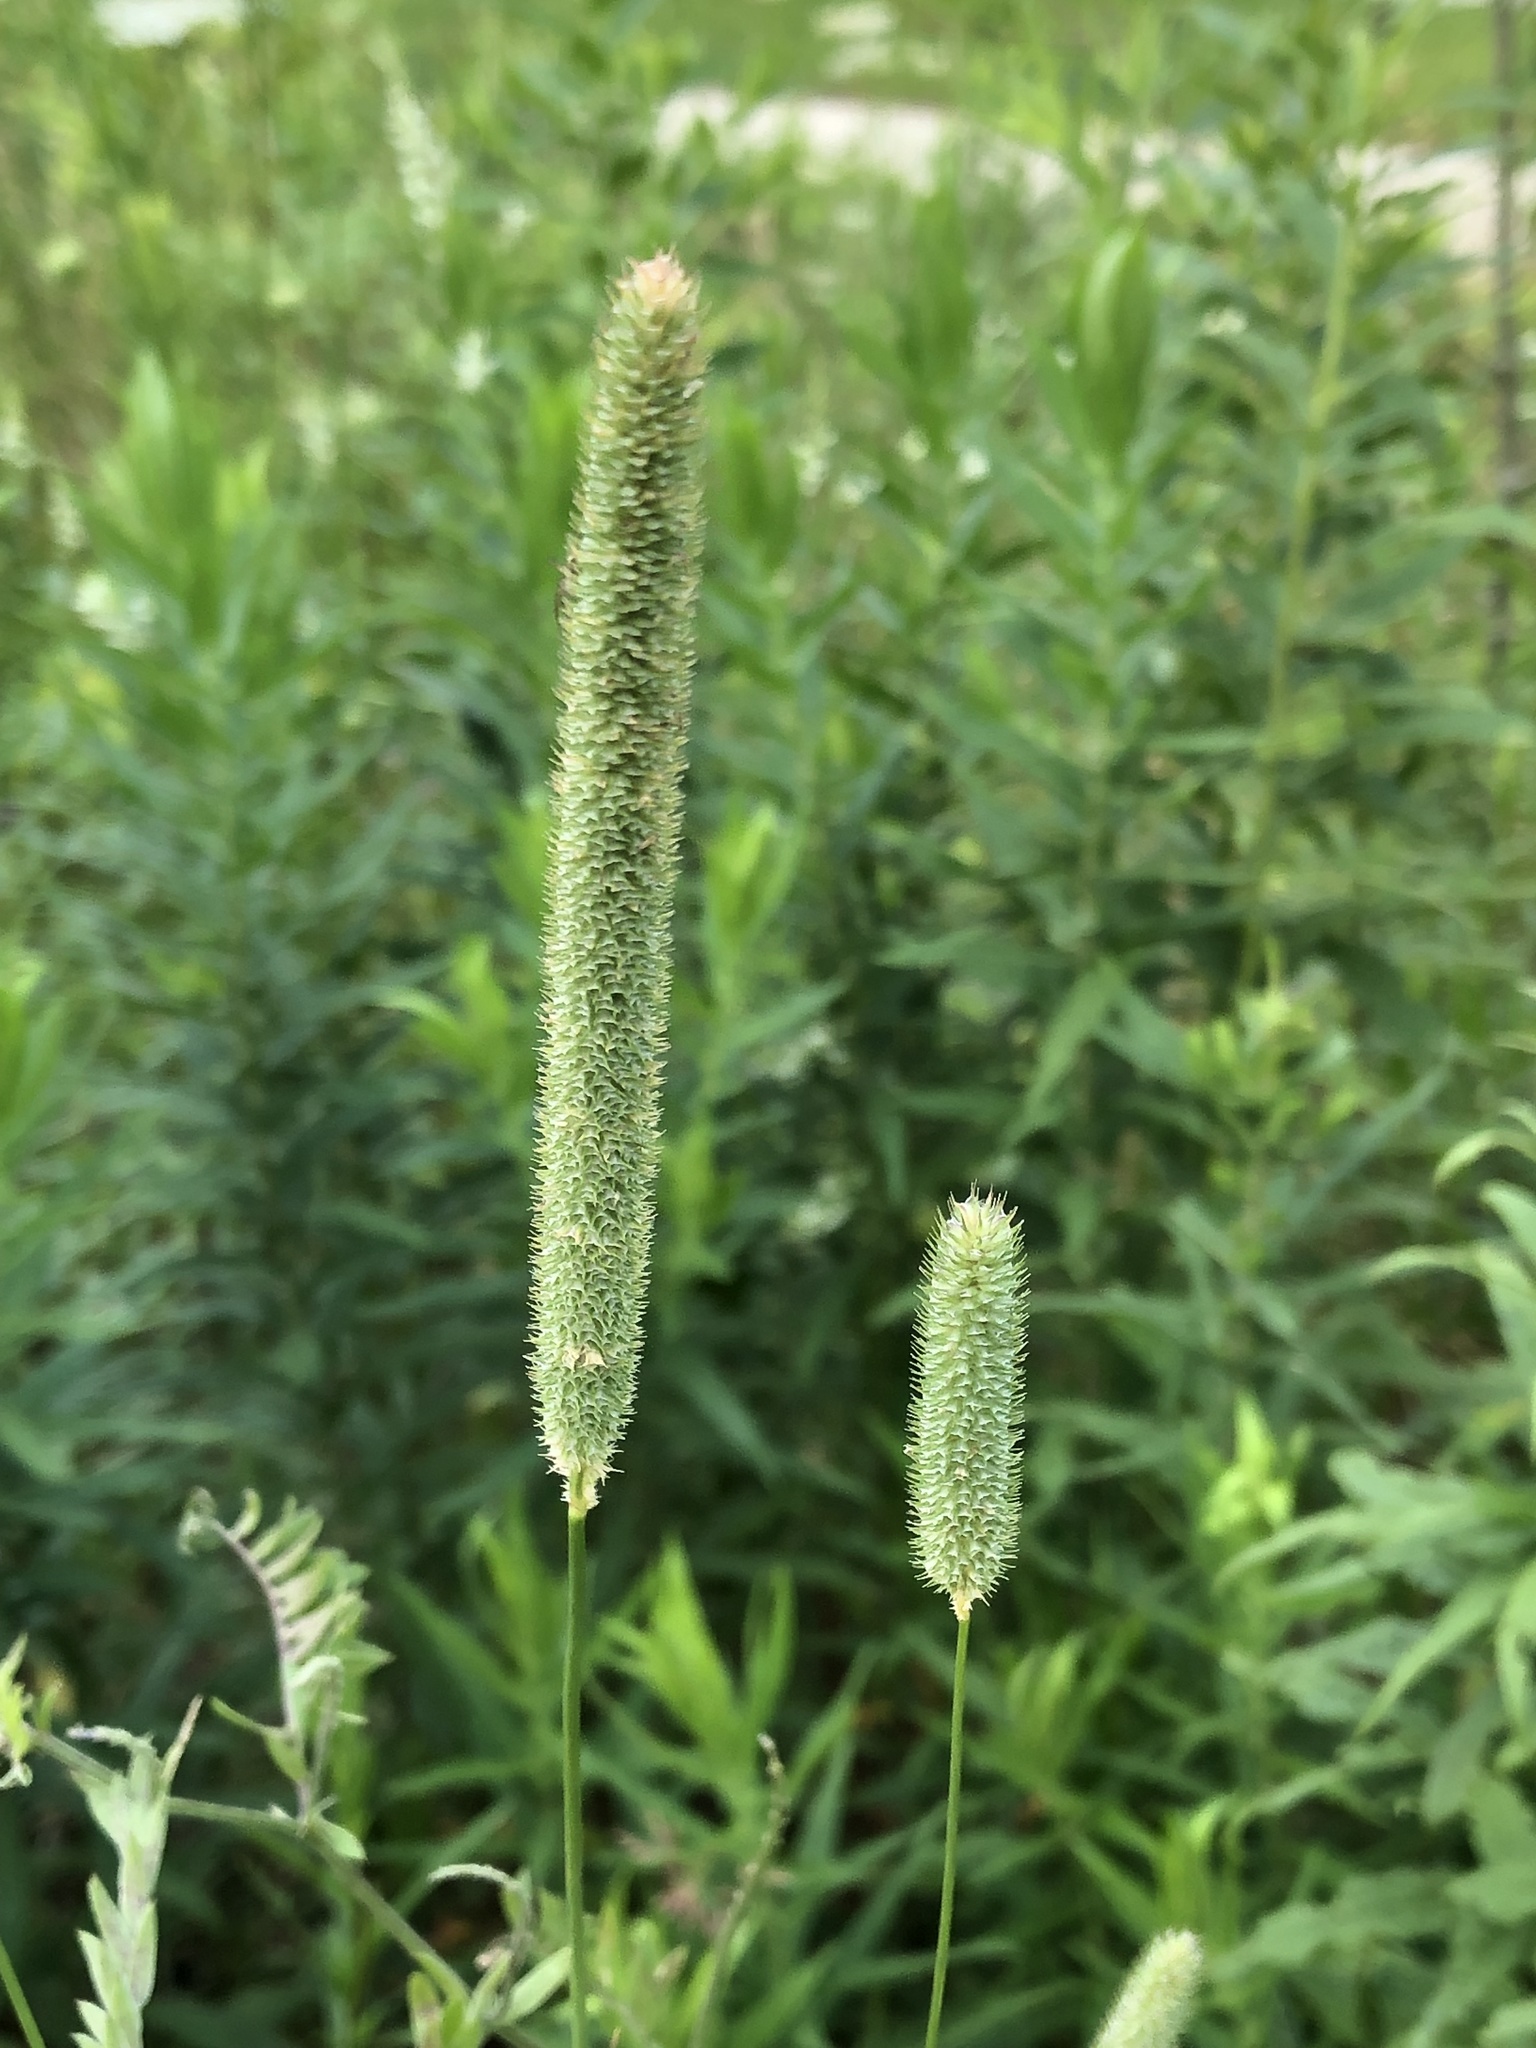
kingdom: Plantae
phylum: Tracheophyta
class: Liliopsida
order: Poales
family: Poaceae
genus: Phleum
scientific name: Phleum pratense
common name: Timothy grass
